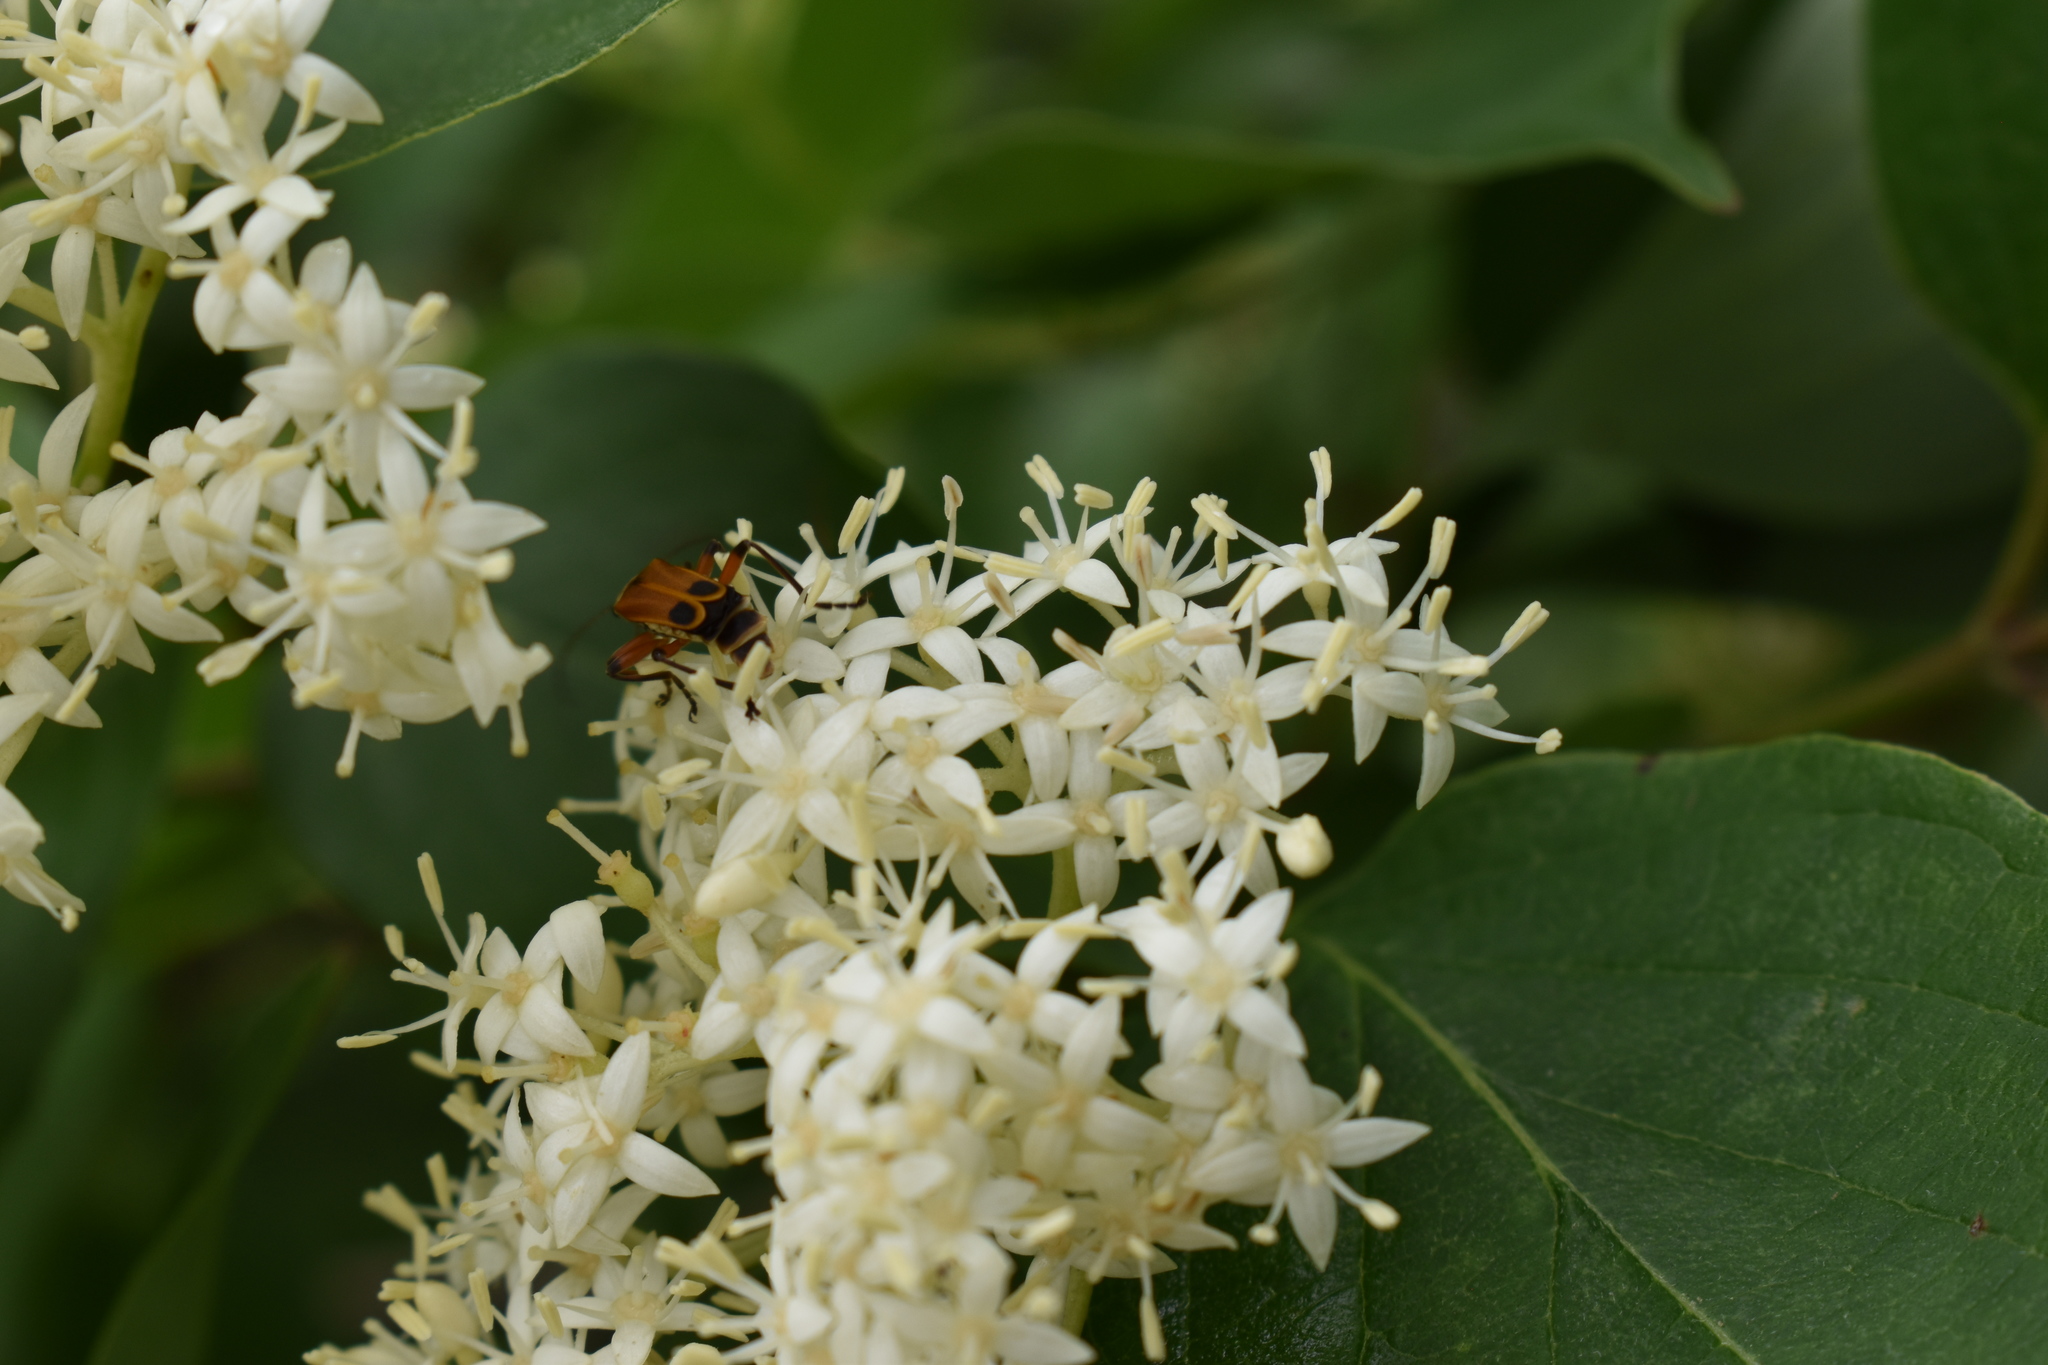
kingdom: Animalia
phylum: Arthropoda
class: Insecta
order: Coleoptera
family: Cantharidae
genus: Chauliognathus
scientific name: Chauliognathus marginatus
